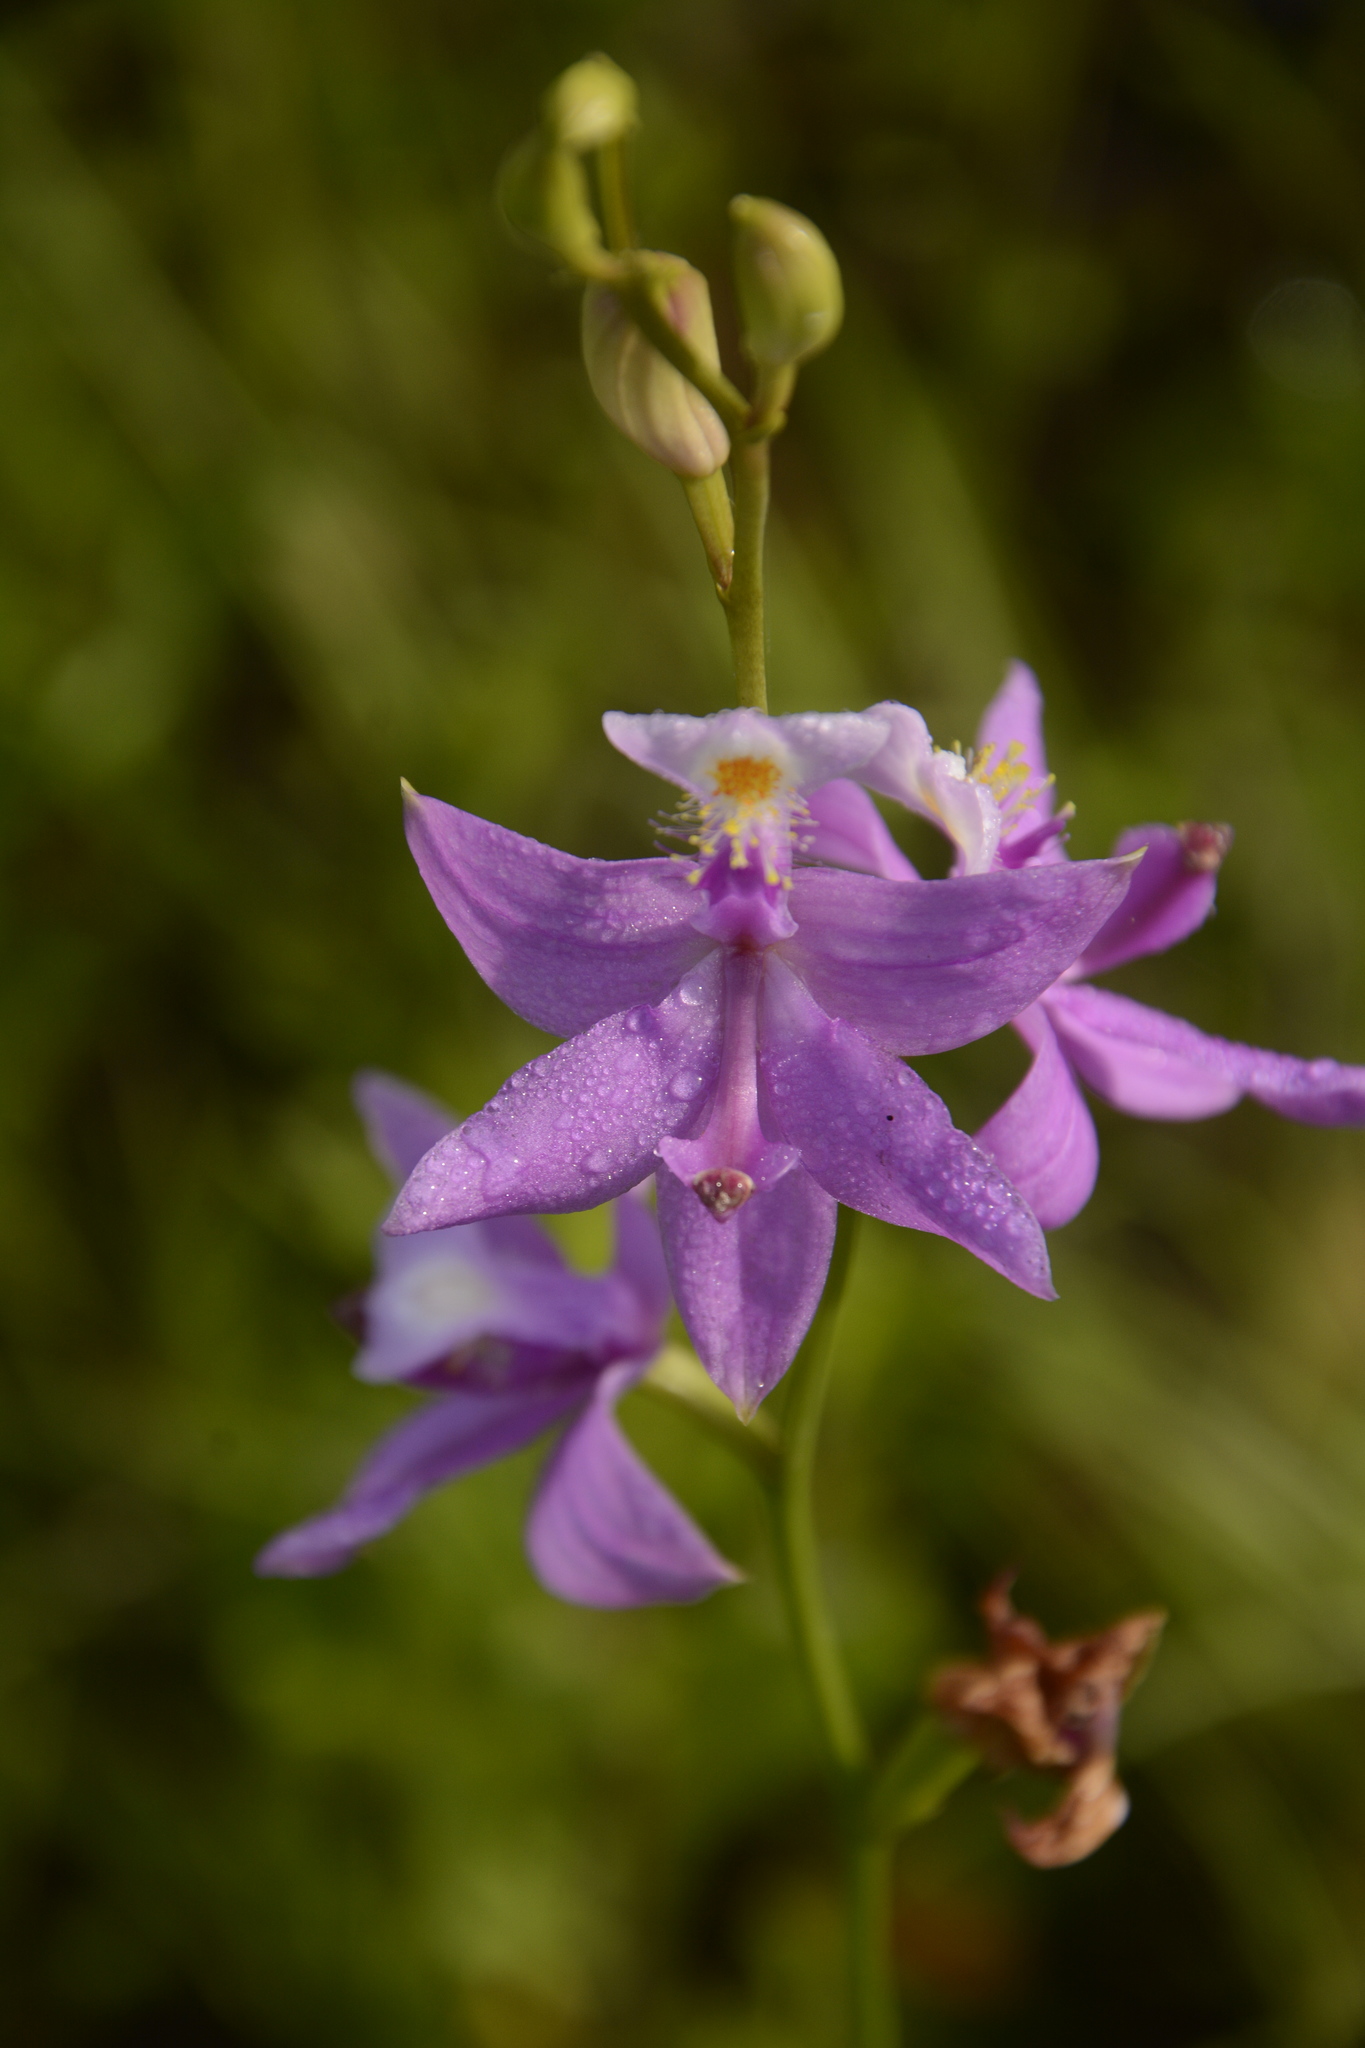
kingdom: Plantae
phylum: Tracheophyta
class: Liliopsida
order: Asparagales
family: Orchidaceae
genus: Calopogon
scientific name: Calopogon tuberosus
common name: Grass-pink
